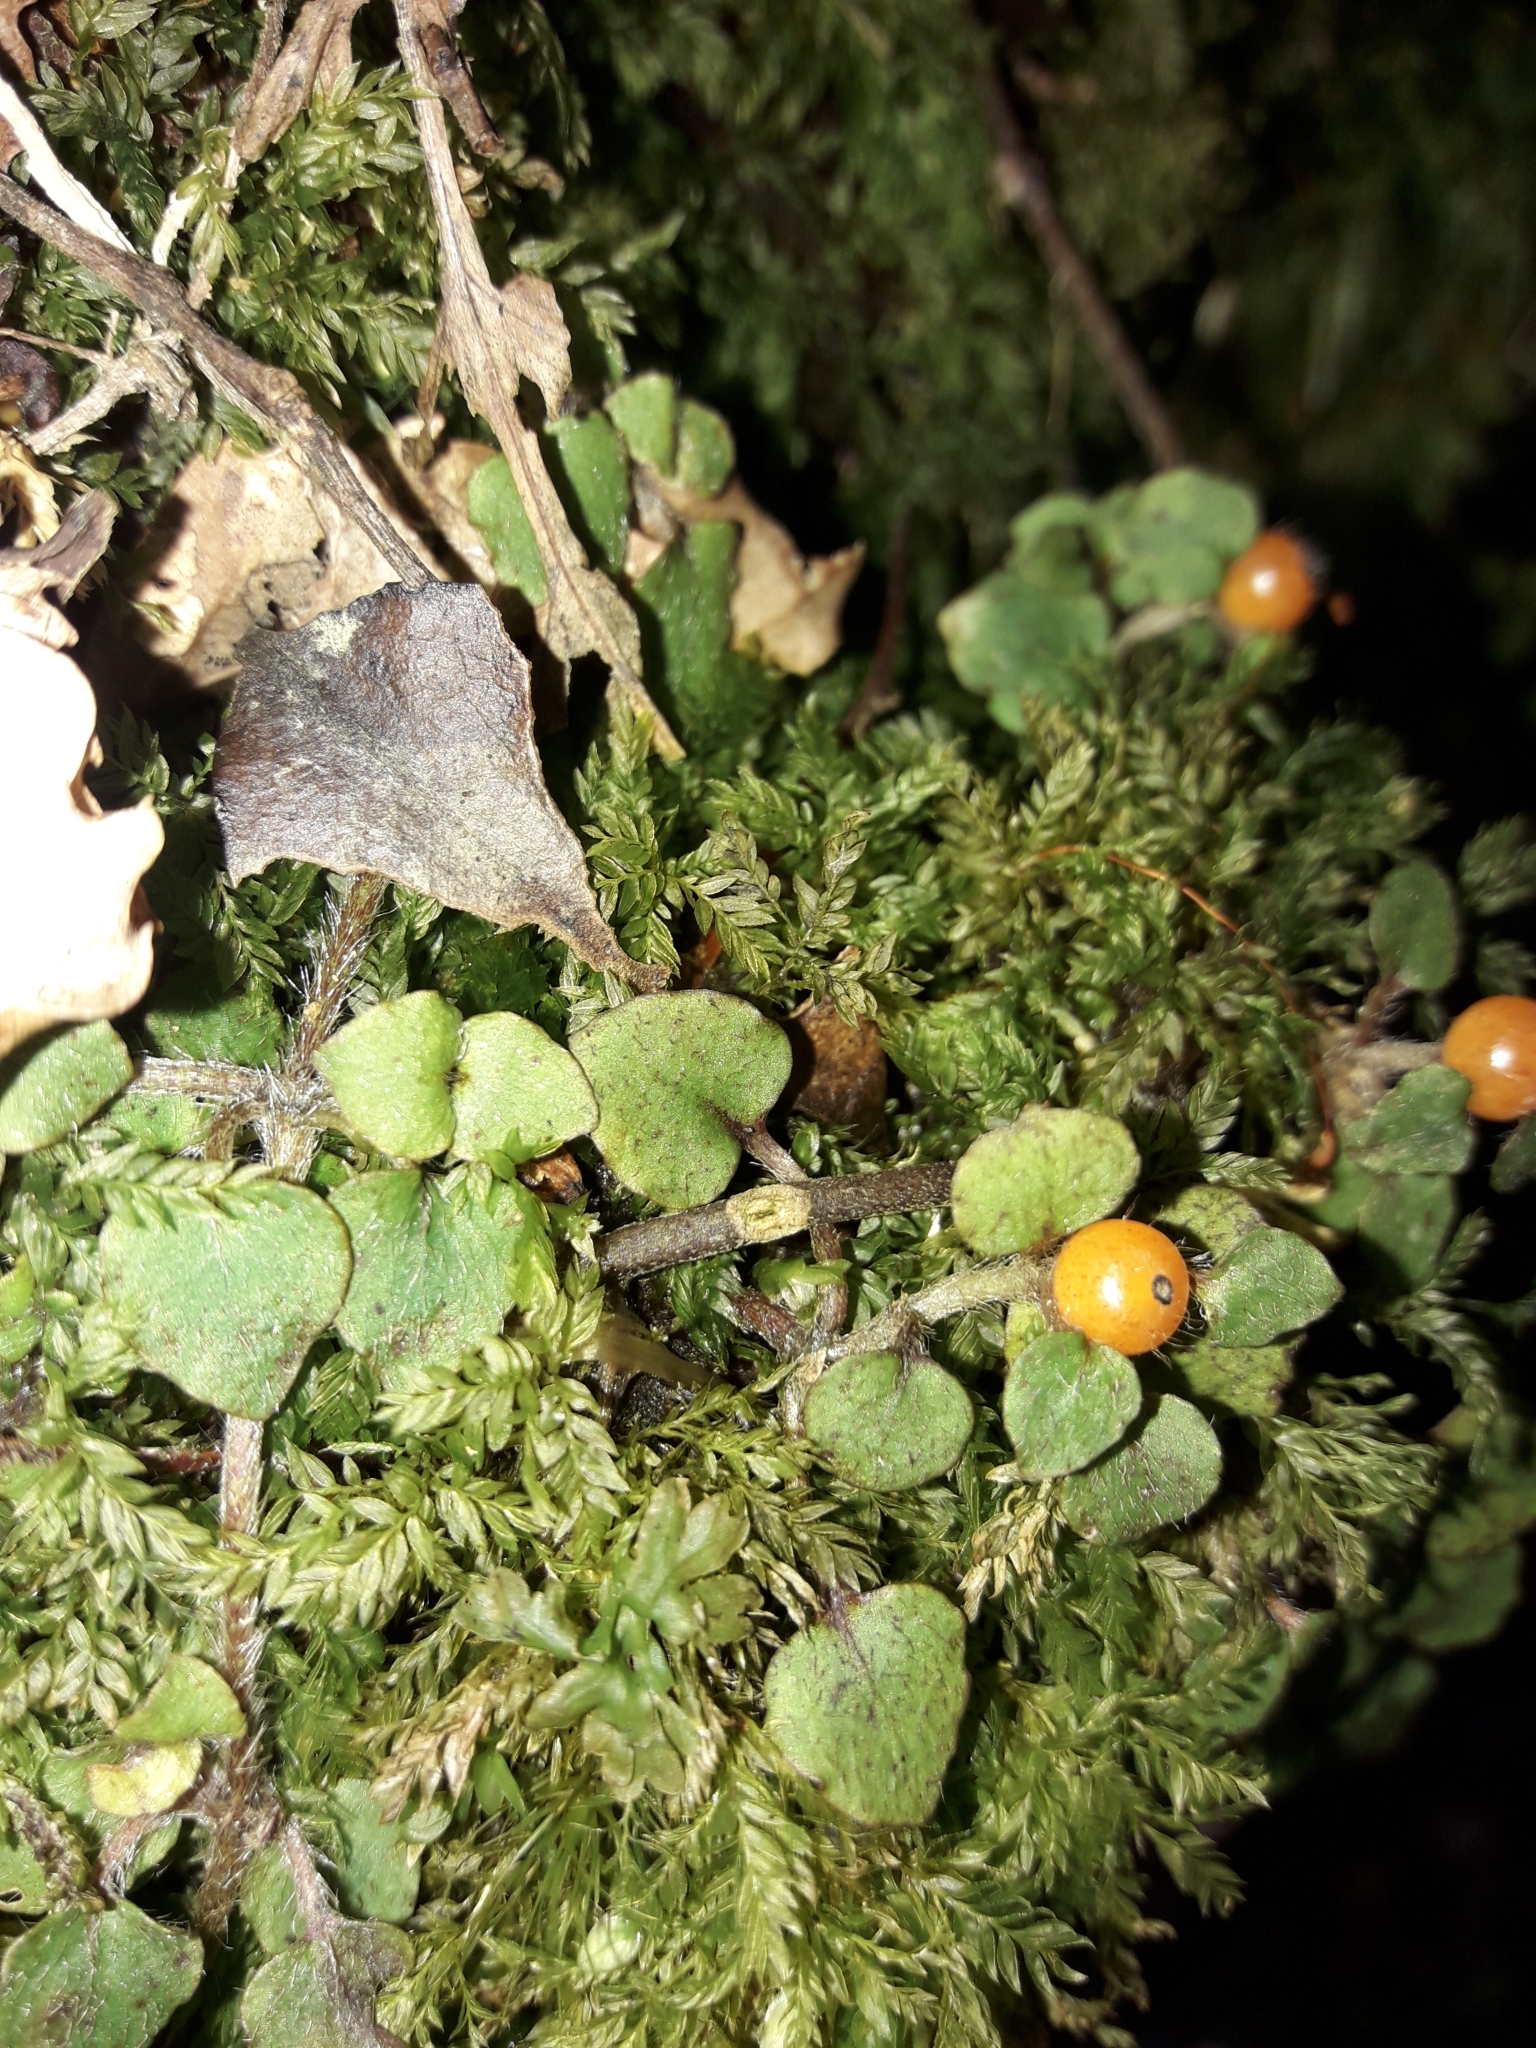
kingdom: Plantae
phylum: Tracheophyta
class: Magnoliopsida
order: Gentianales
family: Rubiaceae
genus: Nertera
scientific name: Nertera villosa
